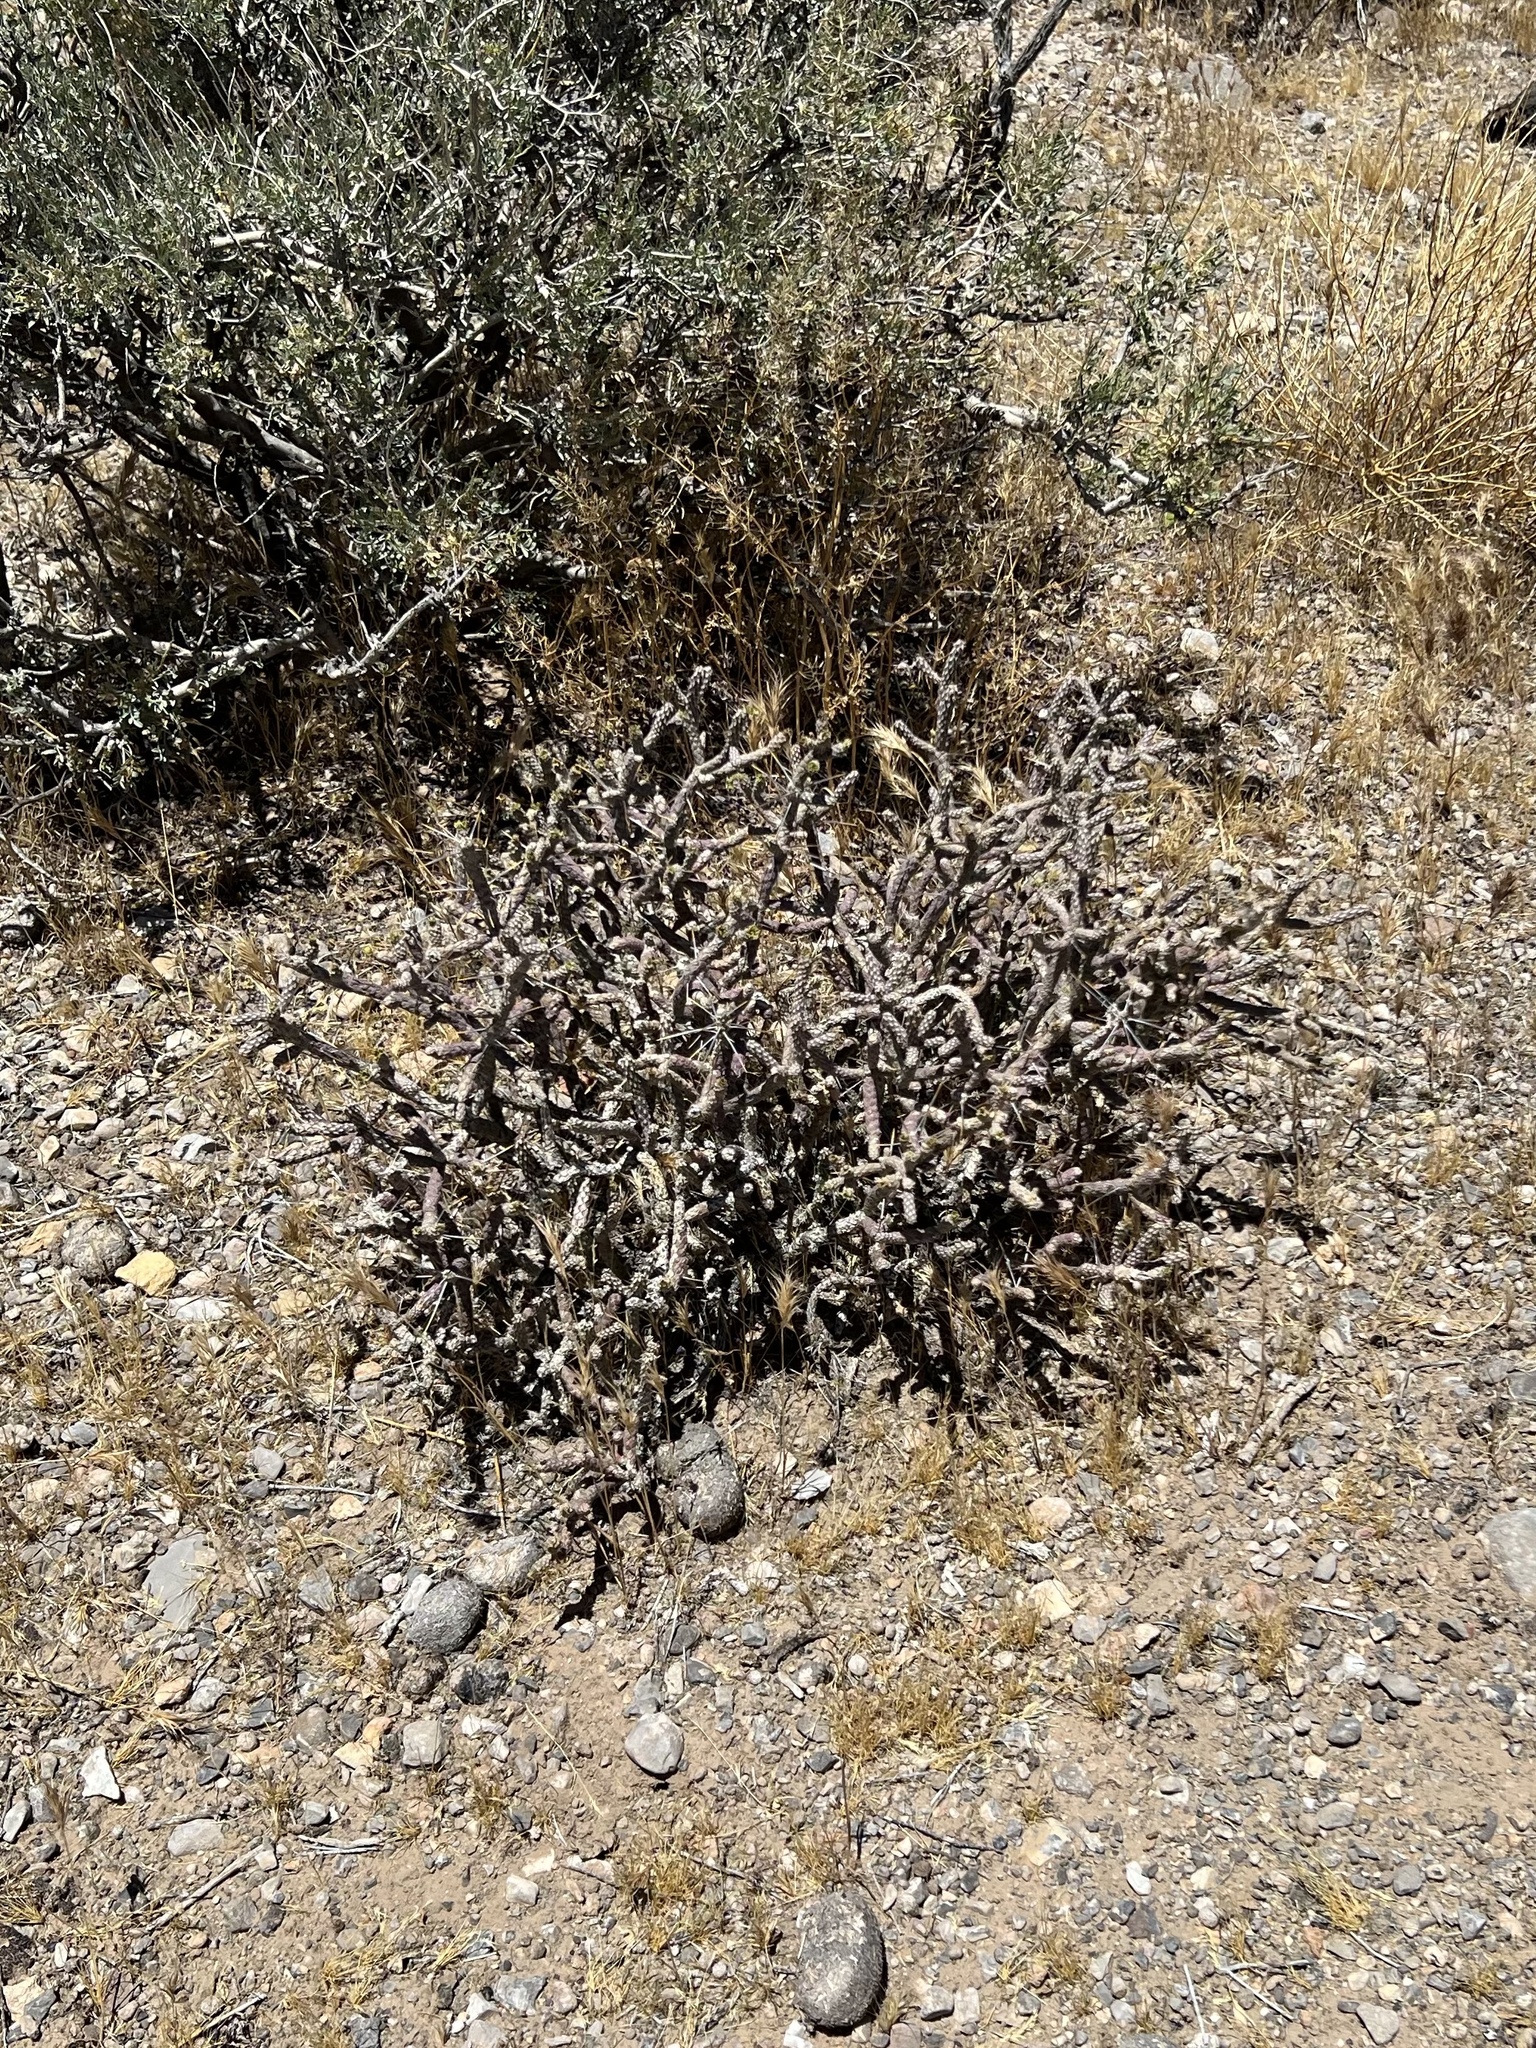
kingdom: Plantae
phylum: Tracheophyta
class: Magnoliopsida
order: Caryophyllales
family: Cactaceae
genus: Cylindropuntia
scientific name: Cylindropuntia ramosissima
